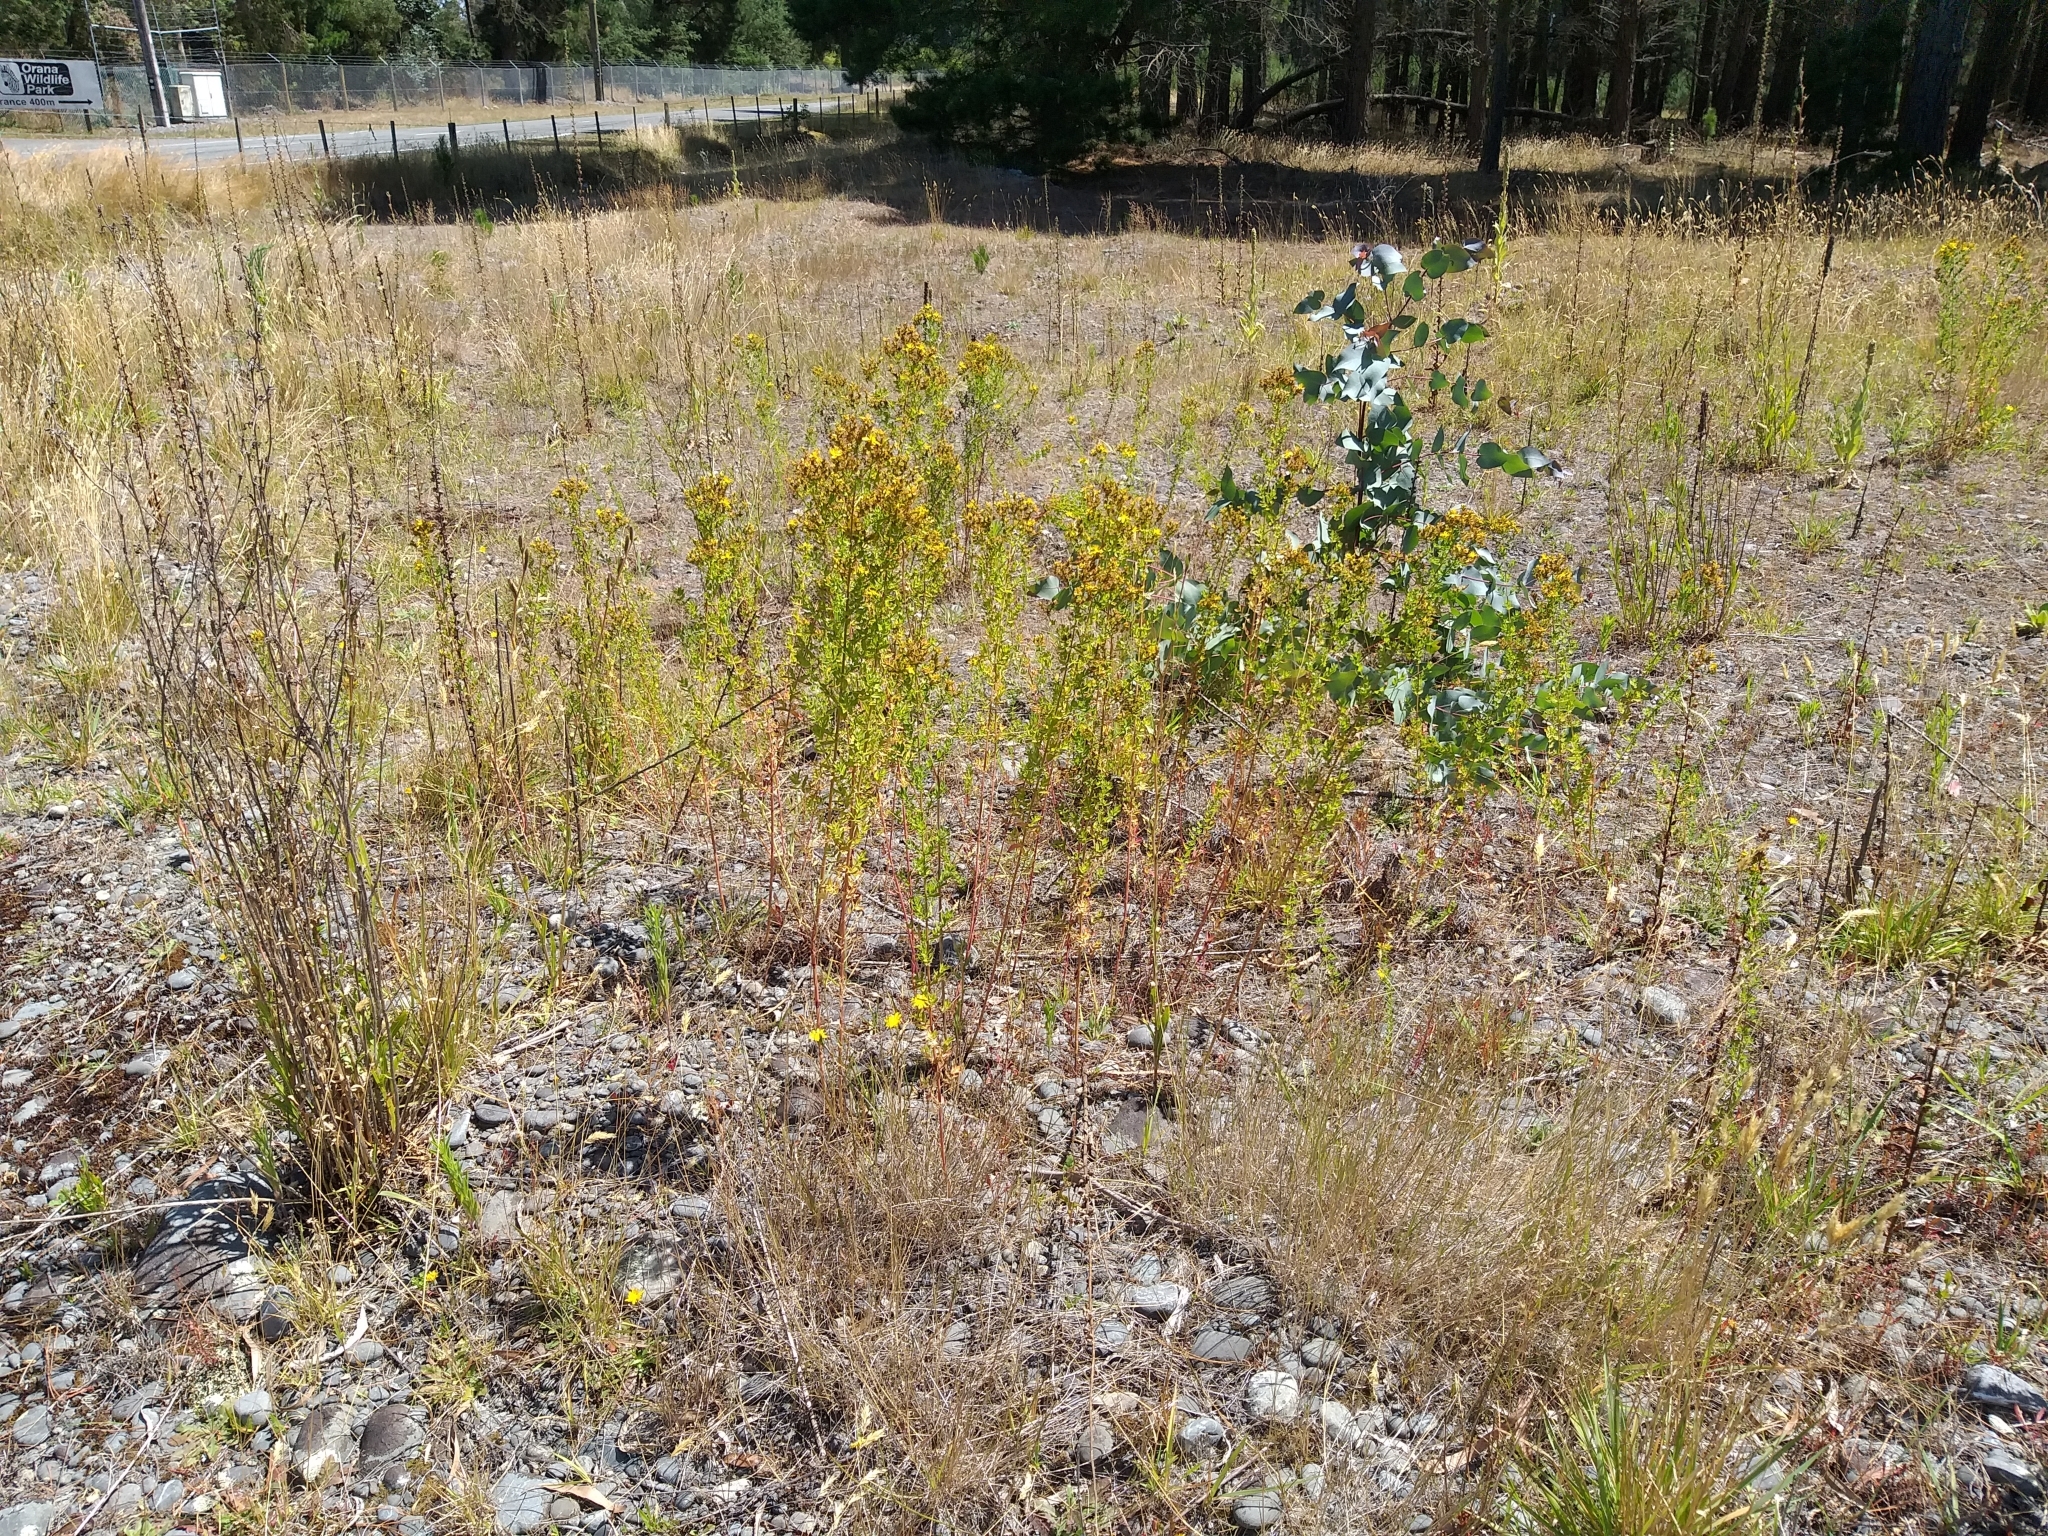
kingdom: Plantae
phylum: Tracheophyta
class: Magnoliopsida
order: Malpighiales
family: Hypericaceae
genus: Hypericum
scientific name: Hypericum perforatum
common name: Common st. johnswort
